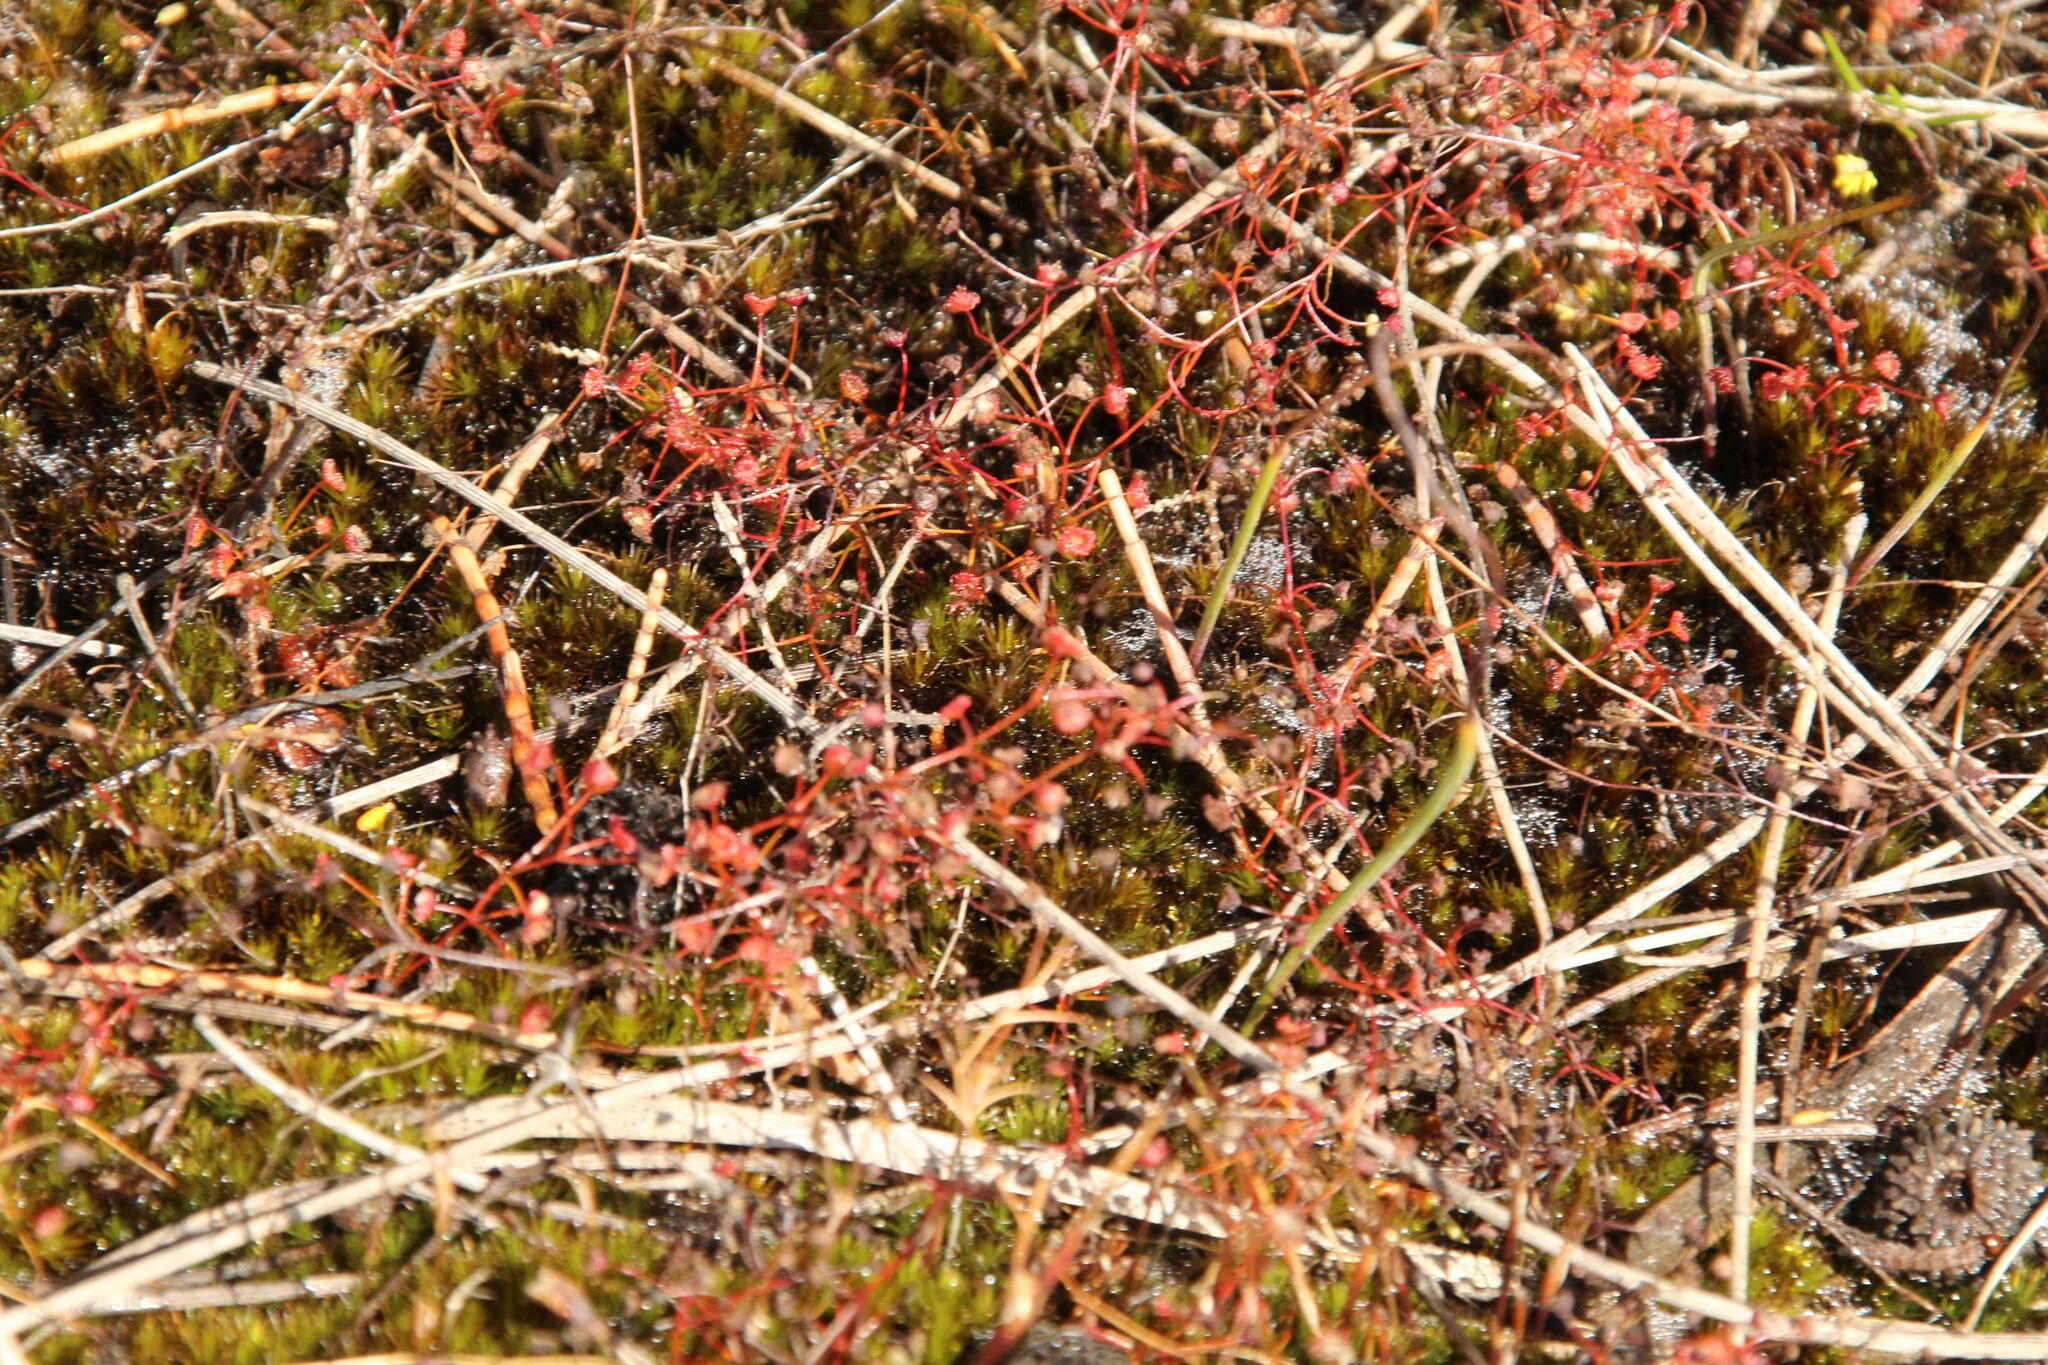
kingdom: Plantae
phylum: Tracheophyta
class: Magnoliopsida
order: Caryophyllales
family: Droseraceae
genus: Drosera
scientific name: Drosera moorei
